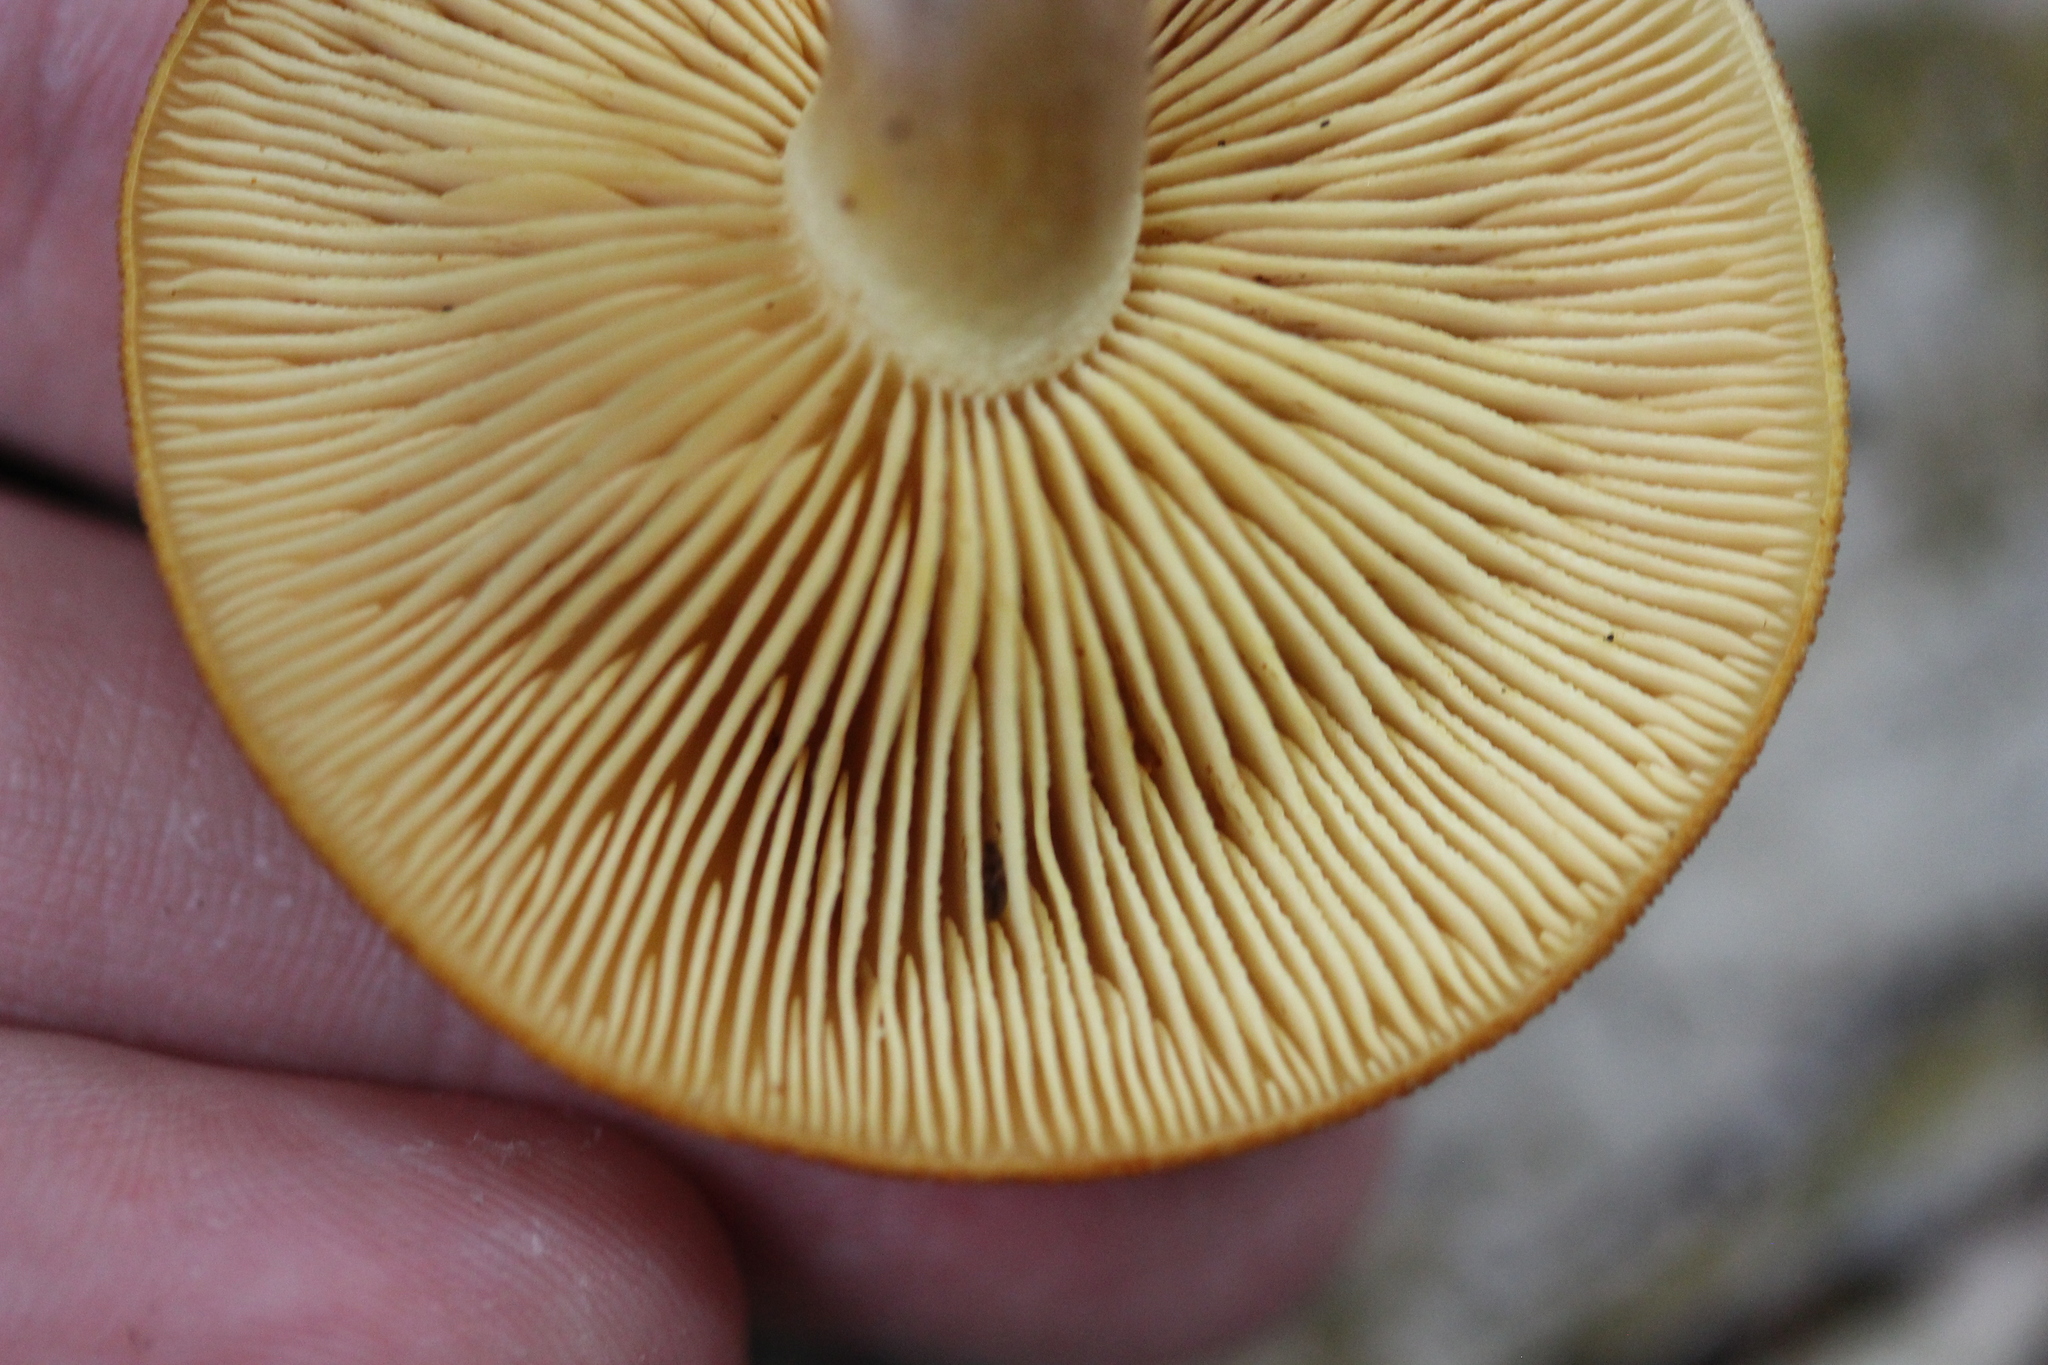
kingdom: Fungi
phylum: Basidiomycota
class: Agaricomycetes
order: Agaricales
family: Tricholomataceae
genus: Tricholomopsis
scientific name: Tricholomopsis ornaticeps
